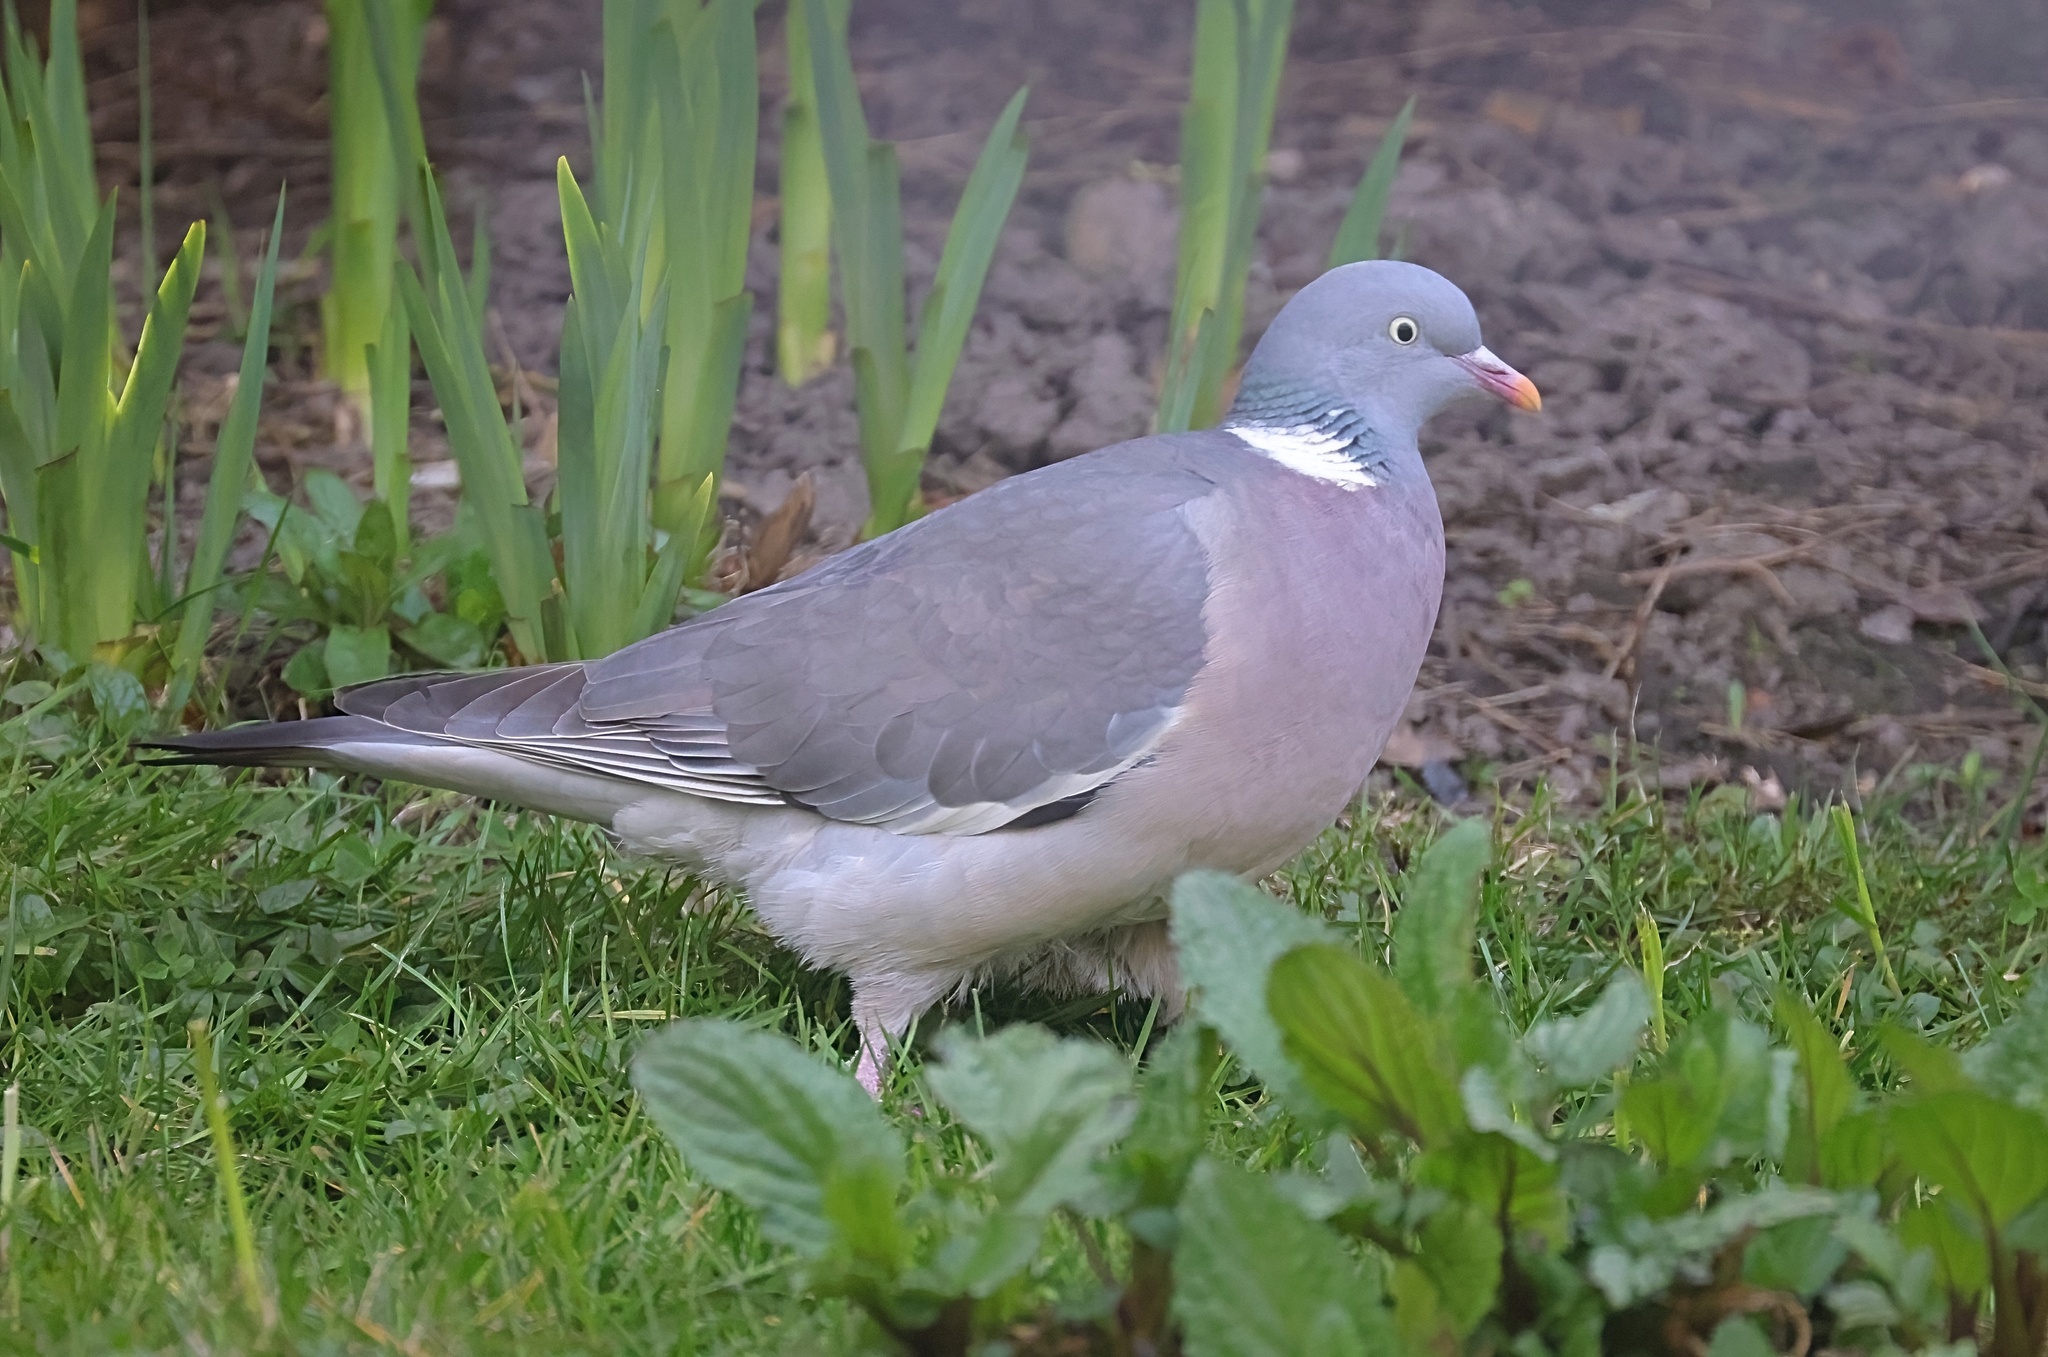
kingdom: Animalia
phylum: Chordata
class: Aves
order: Columbiformes
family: Columbidae
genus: Columba
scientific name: Columba palumbus
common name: Common wood pigeon
